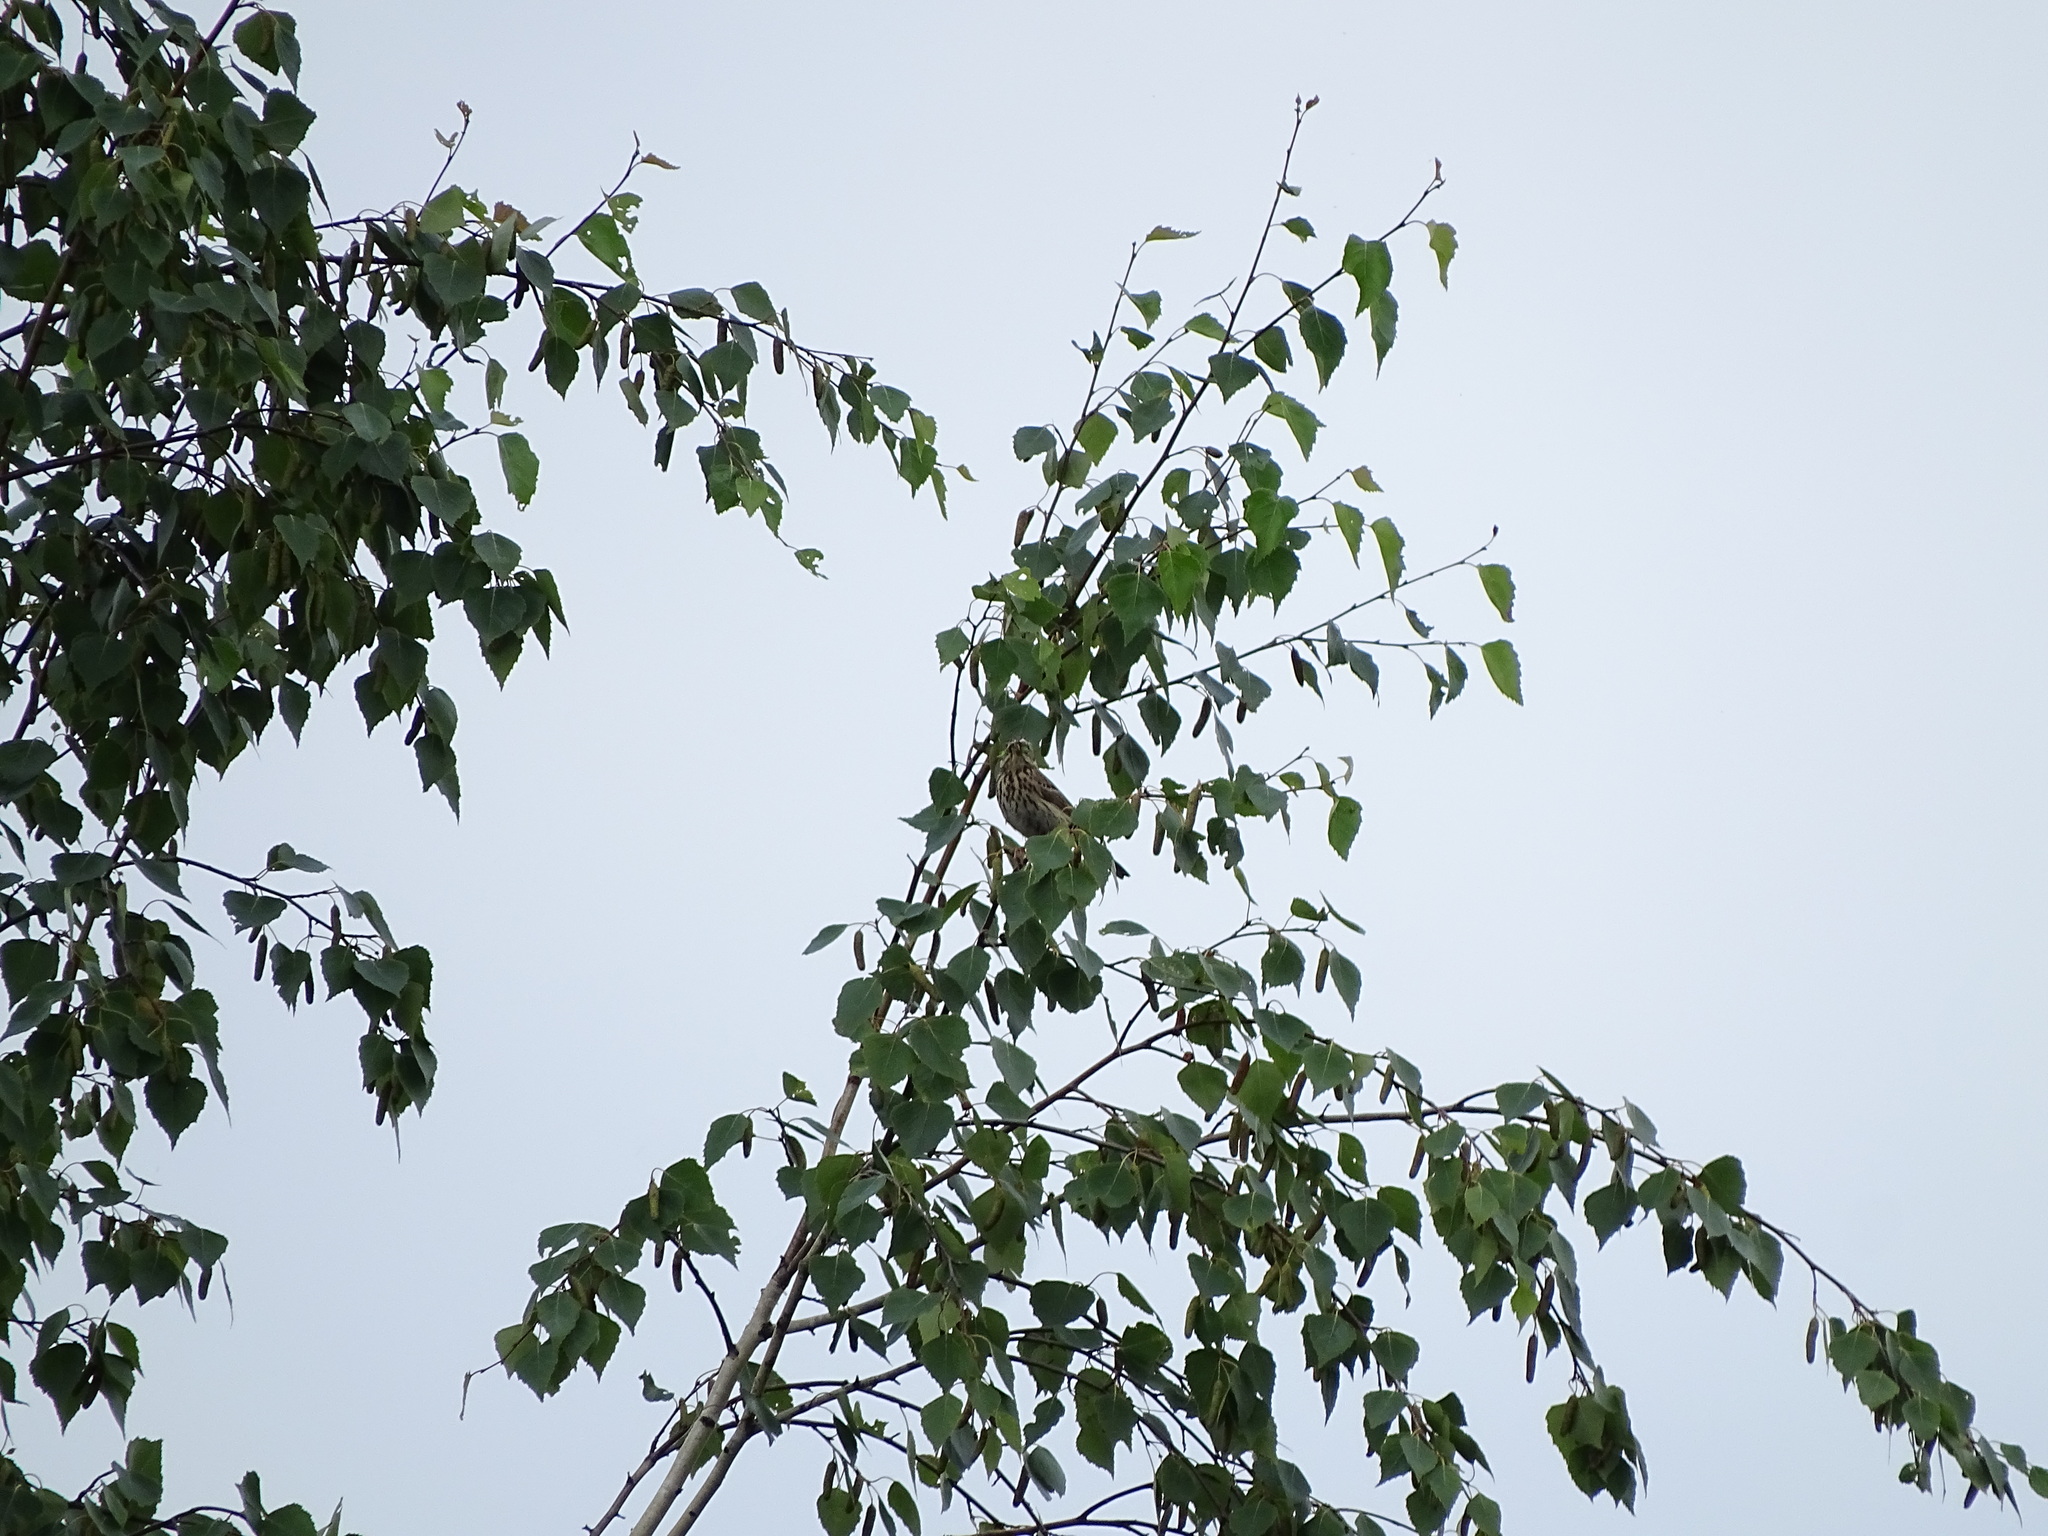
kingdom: Animalia
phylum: Chordata
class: Aves
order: Passeriformes
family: Motacillidae
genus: Anthus
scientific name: Anthus trivialis
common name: Tree pipit
